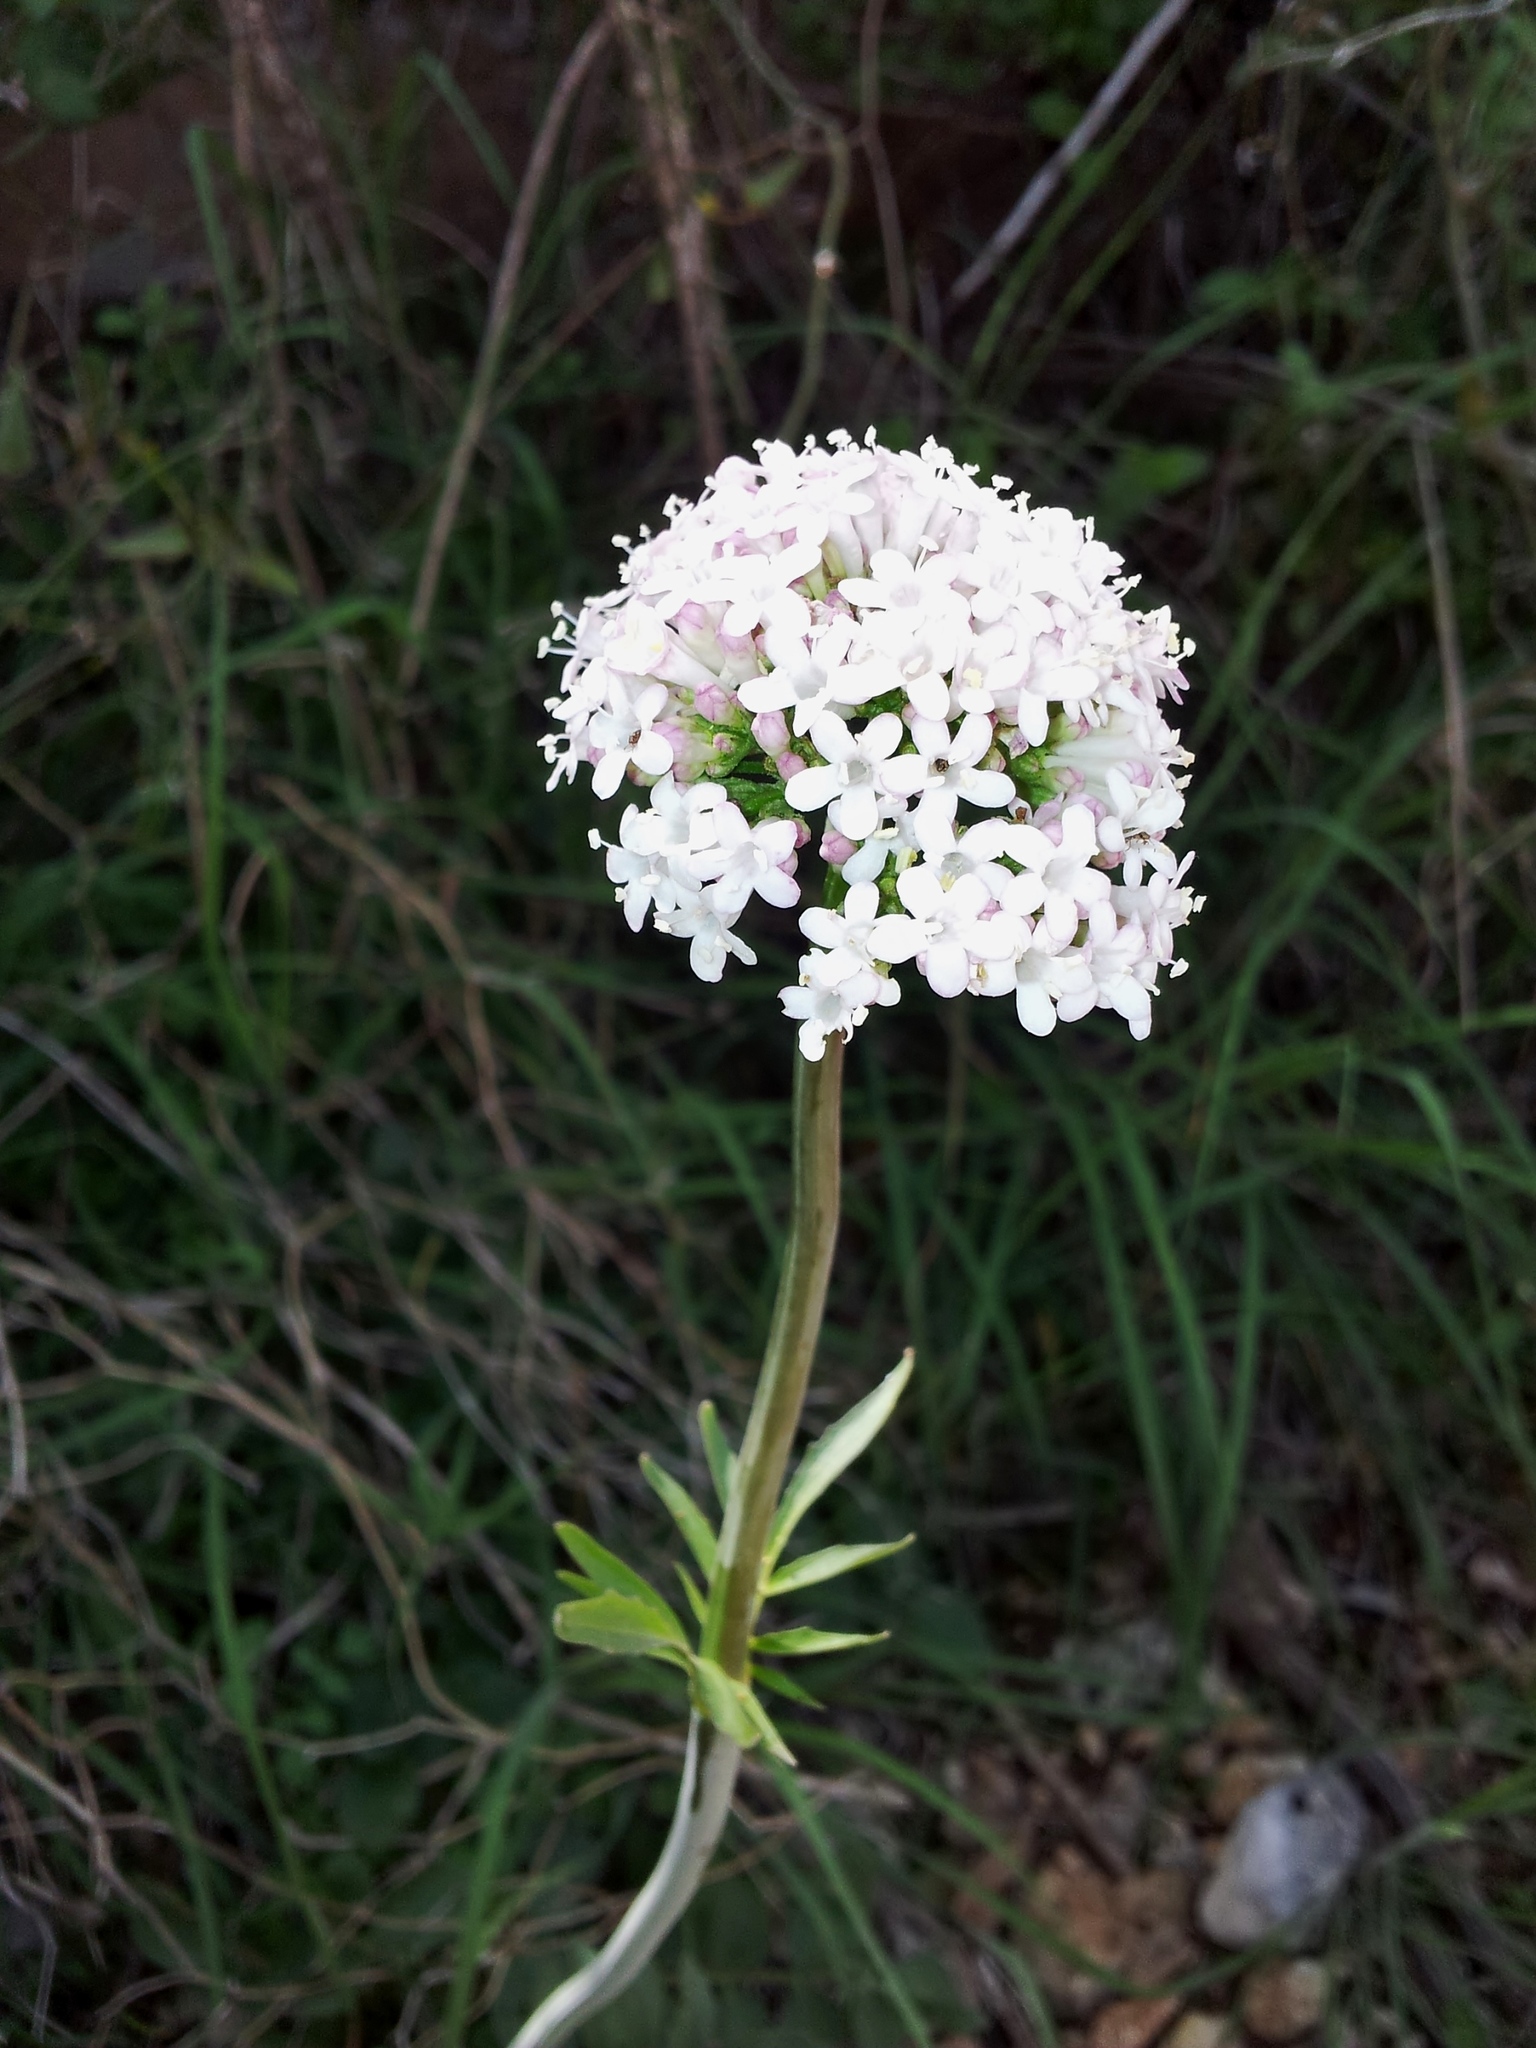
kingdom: Plantae
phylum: Tracheophyta
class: Magnoliopsida
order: Dipsacales
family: Caprifoliaceae
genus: Valeriana
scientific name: Valeriana dioscoridis
